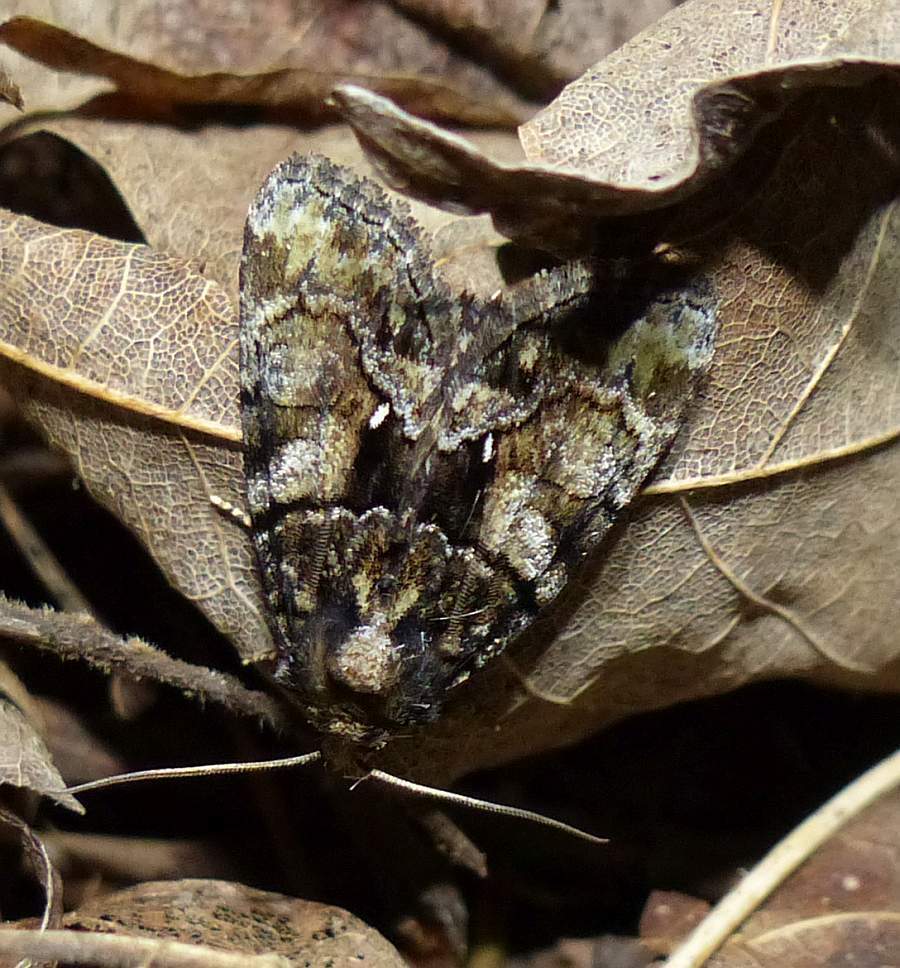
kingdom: Animalia
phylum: Arthropoda
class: Insecta
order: Lepidoptera
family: Noctuidae
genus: Chytonix
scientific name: Chytonix palliatricula
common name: Cloaked marvel
